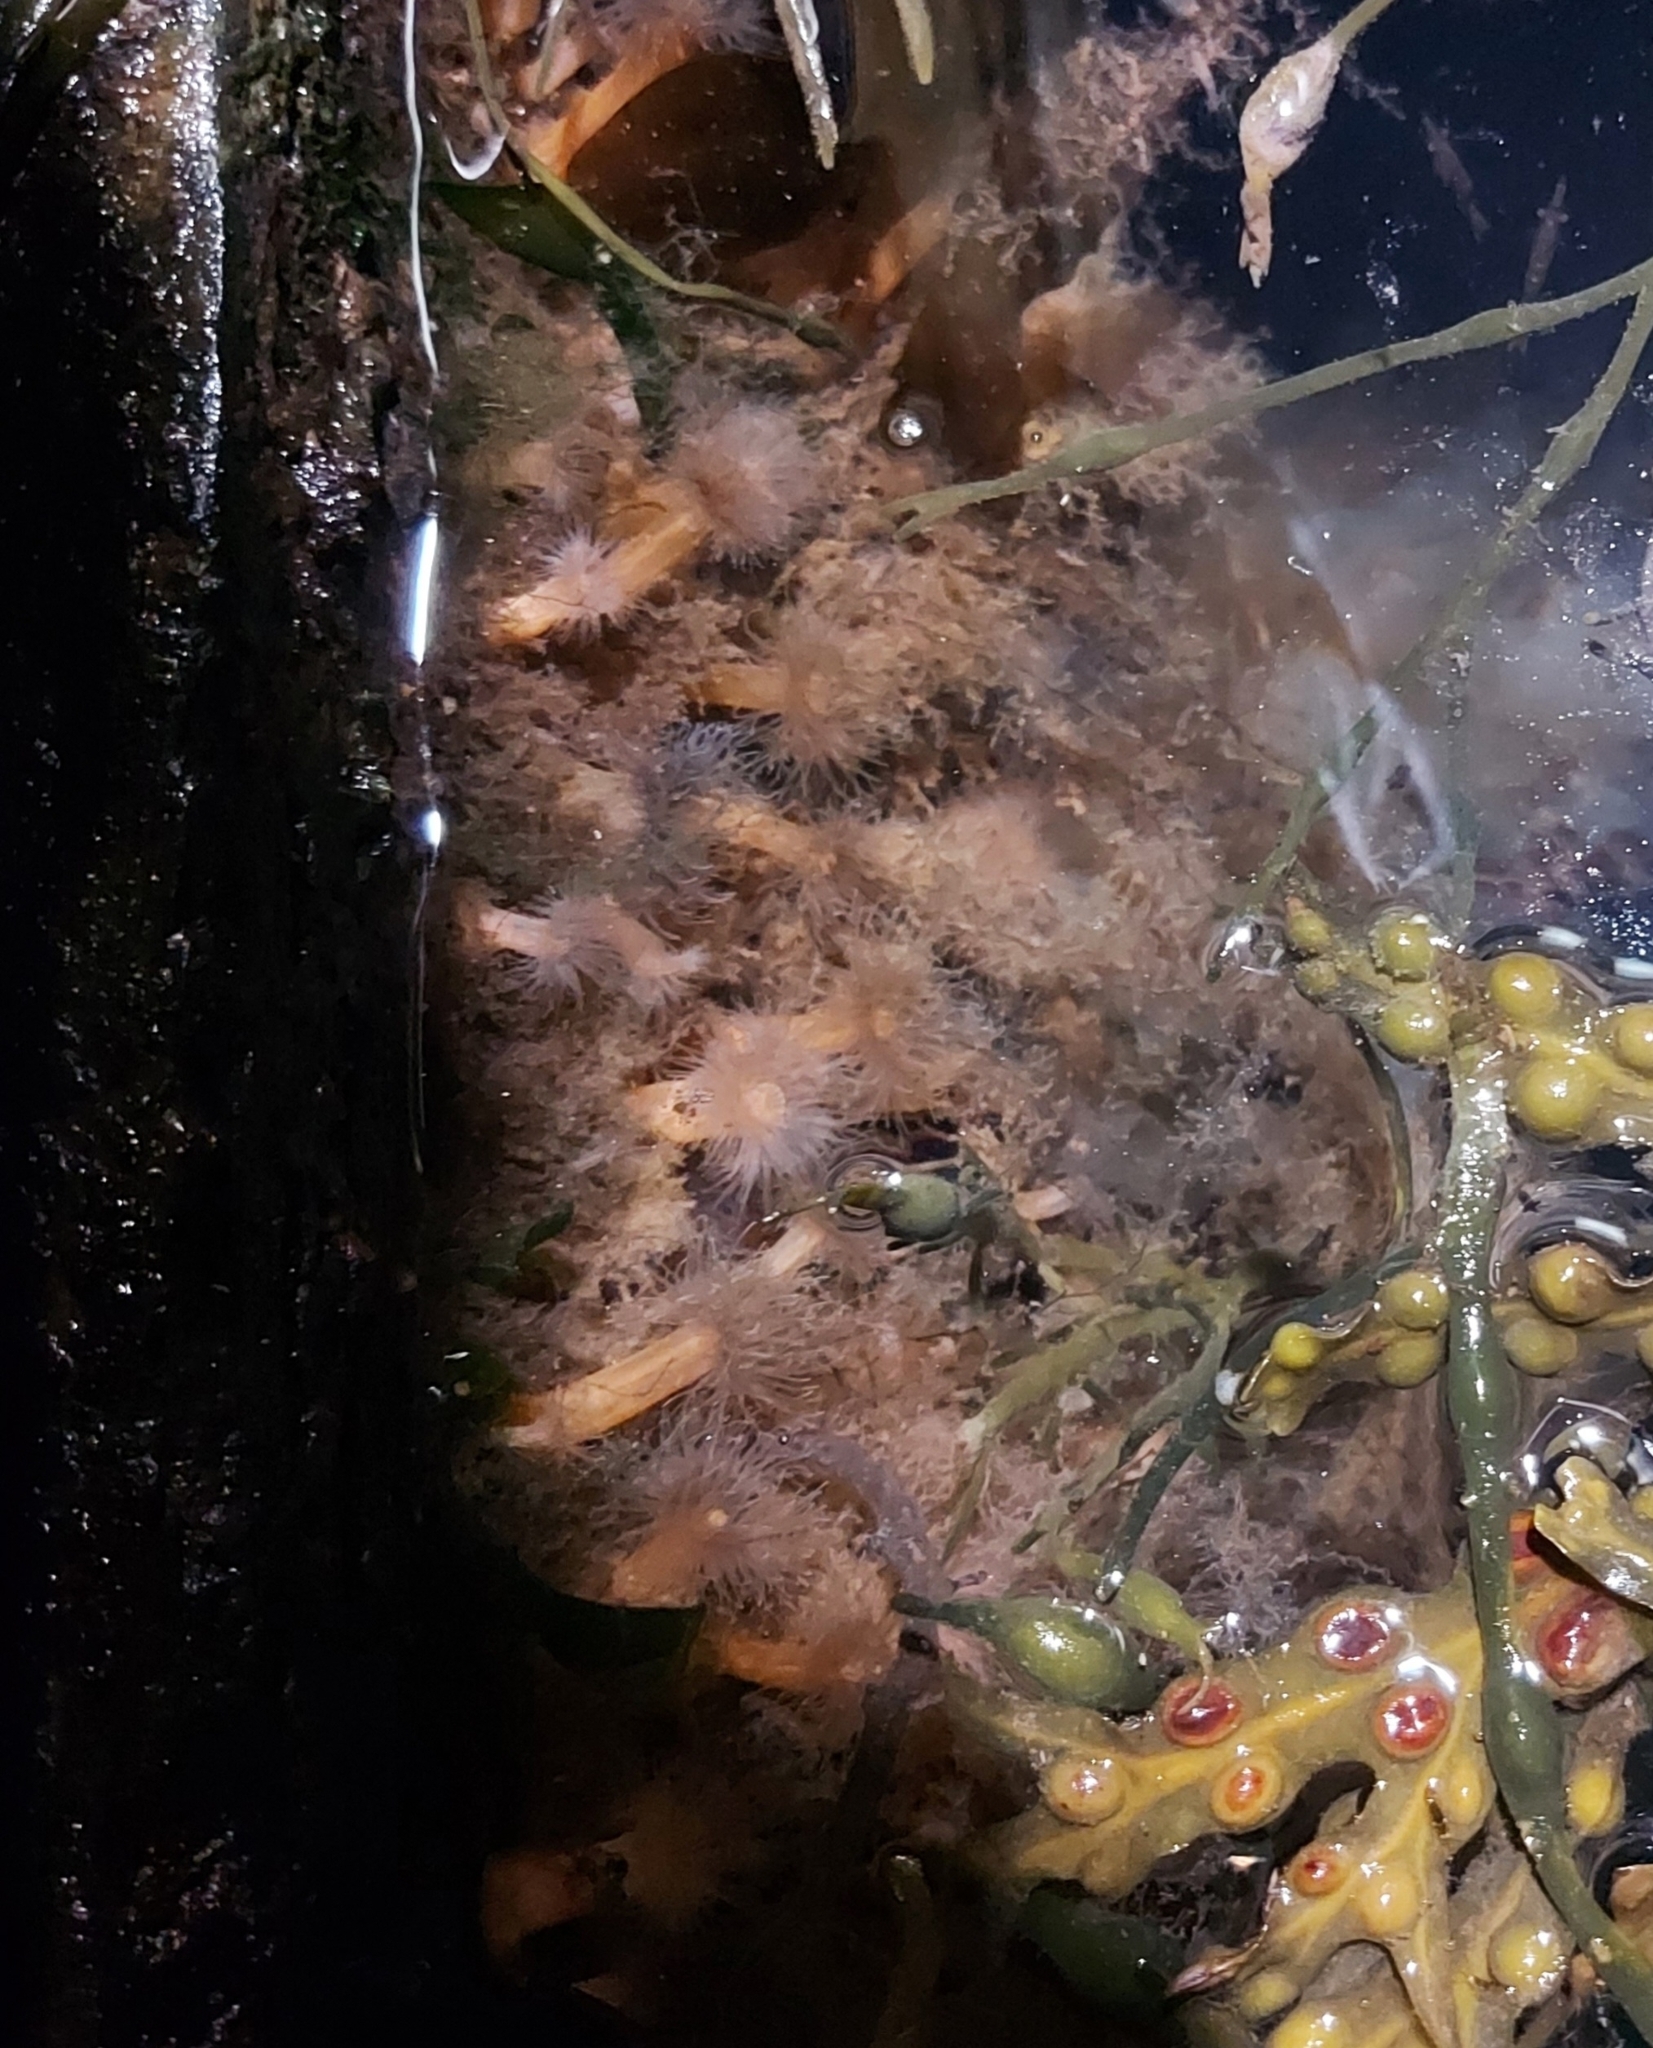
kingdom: Animalia
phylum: Cnidaria
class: Anthozoa
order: Actiniaria
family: Metridiidae
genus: Metridium
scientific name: Metridium senile
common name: Clonal plumose anemone
